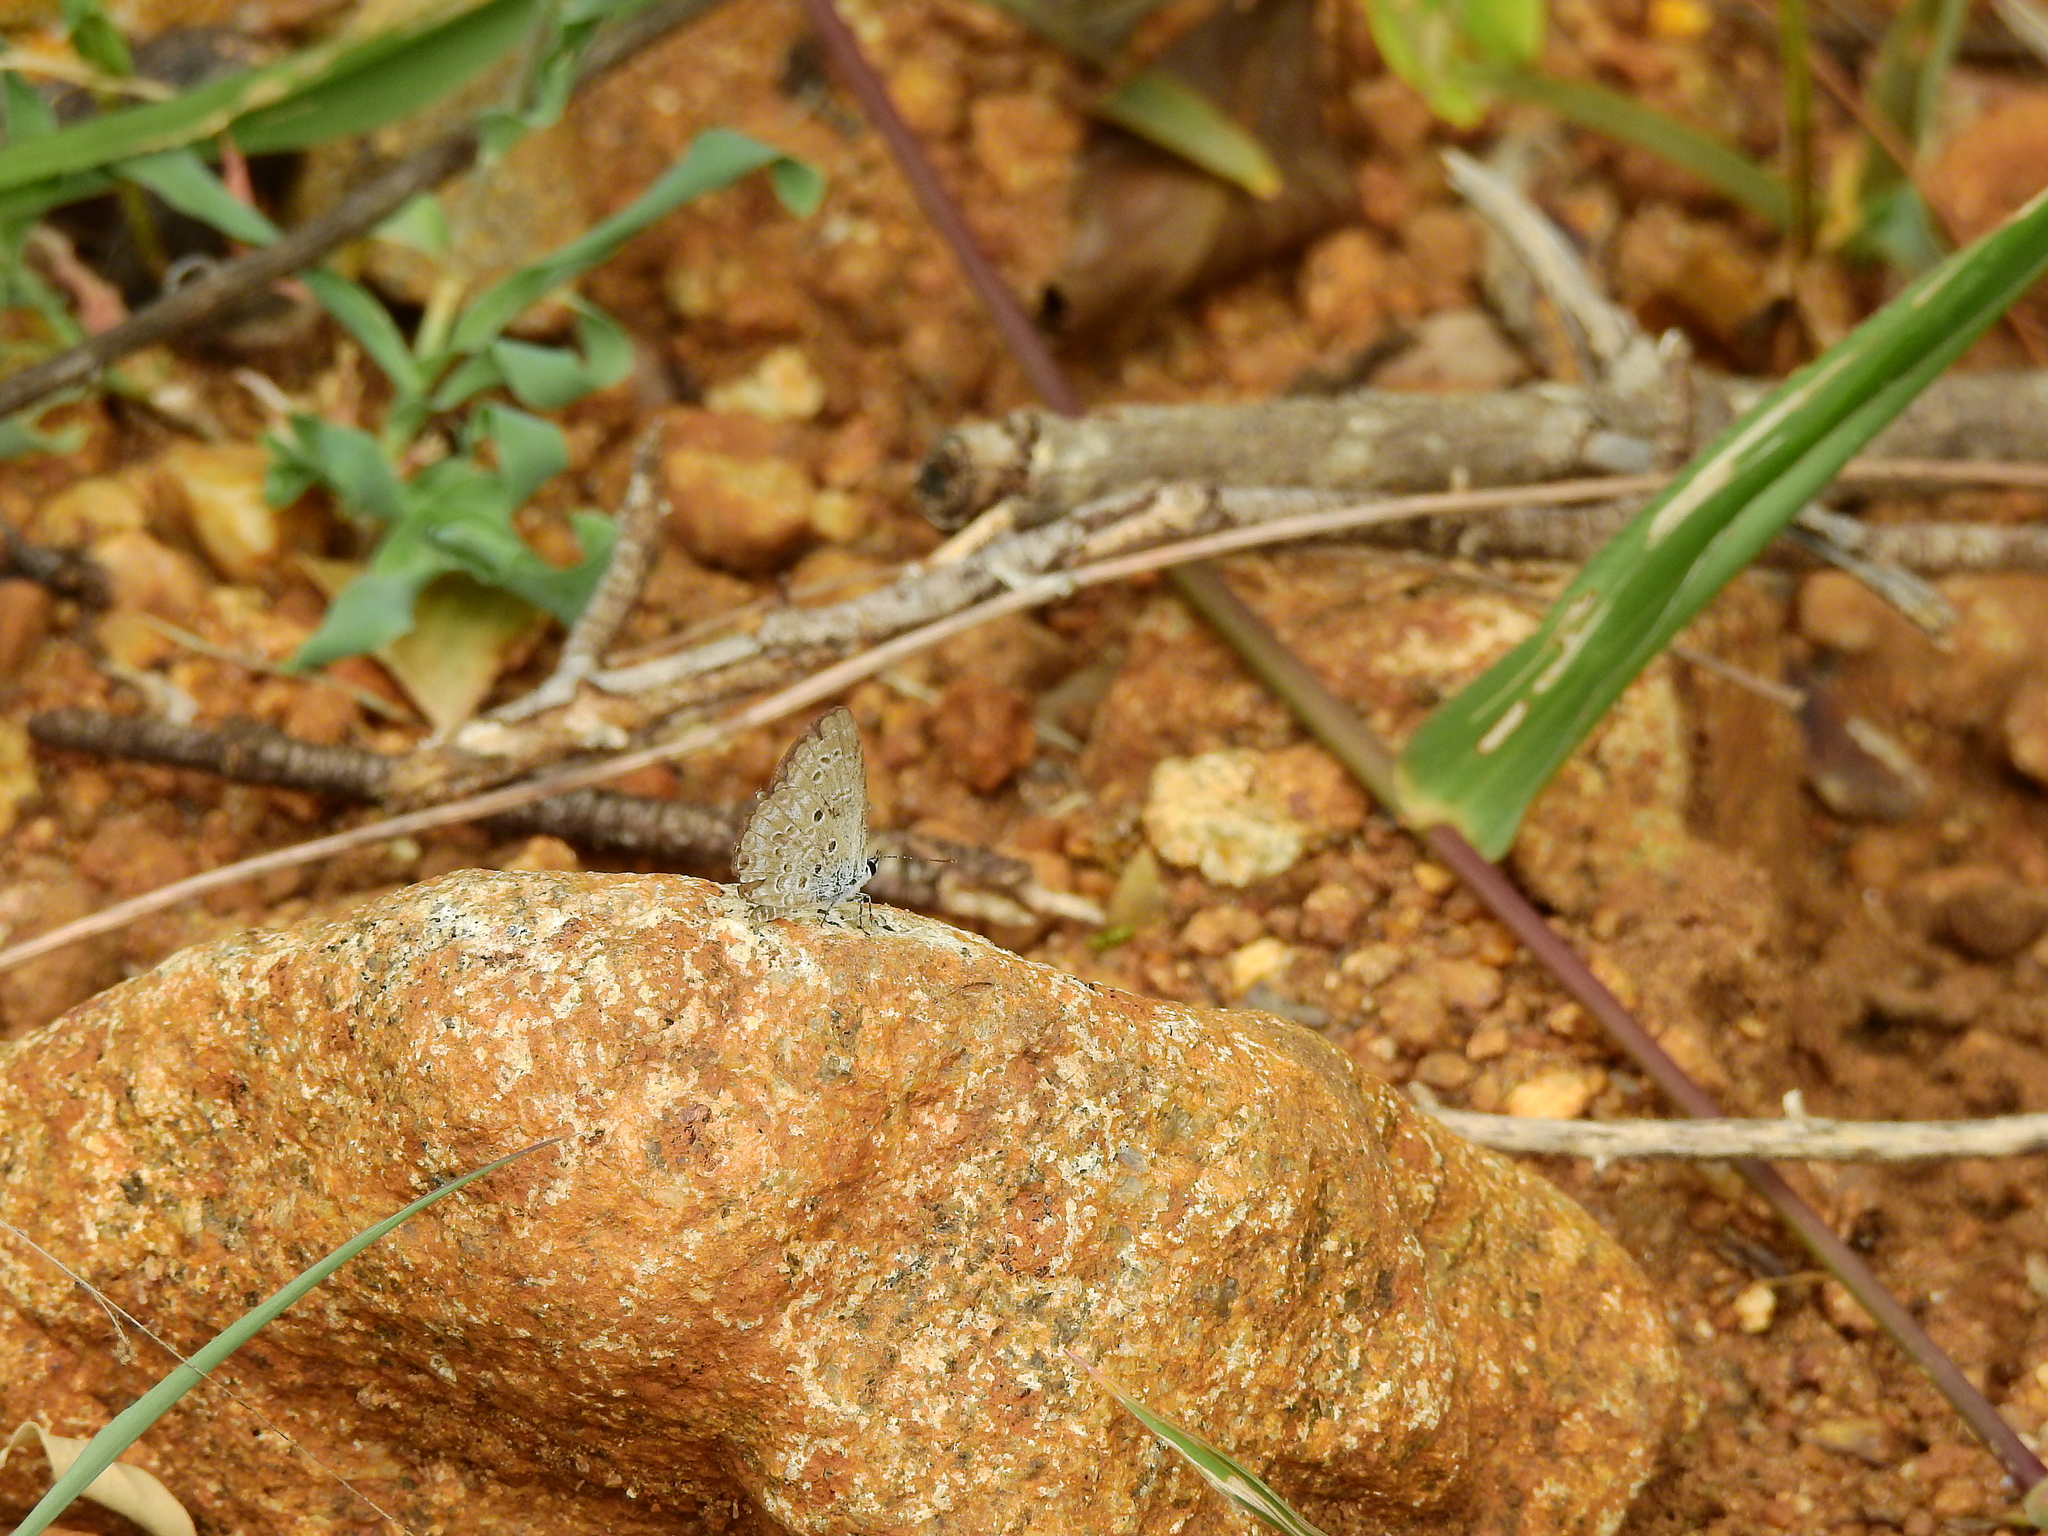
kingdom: Animalia
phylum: Arthropoda
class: Insecta
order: Lepidoptera
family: Lycaenidae
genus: Chilades
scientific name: Chilades laius
